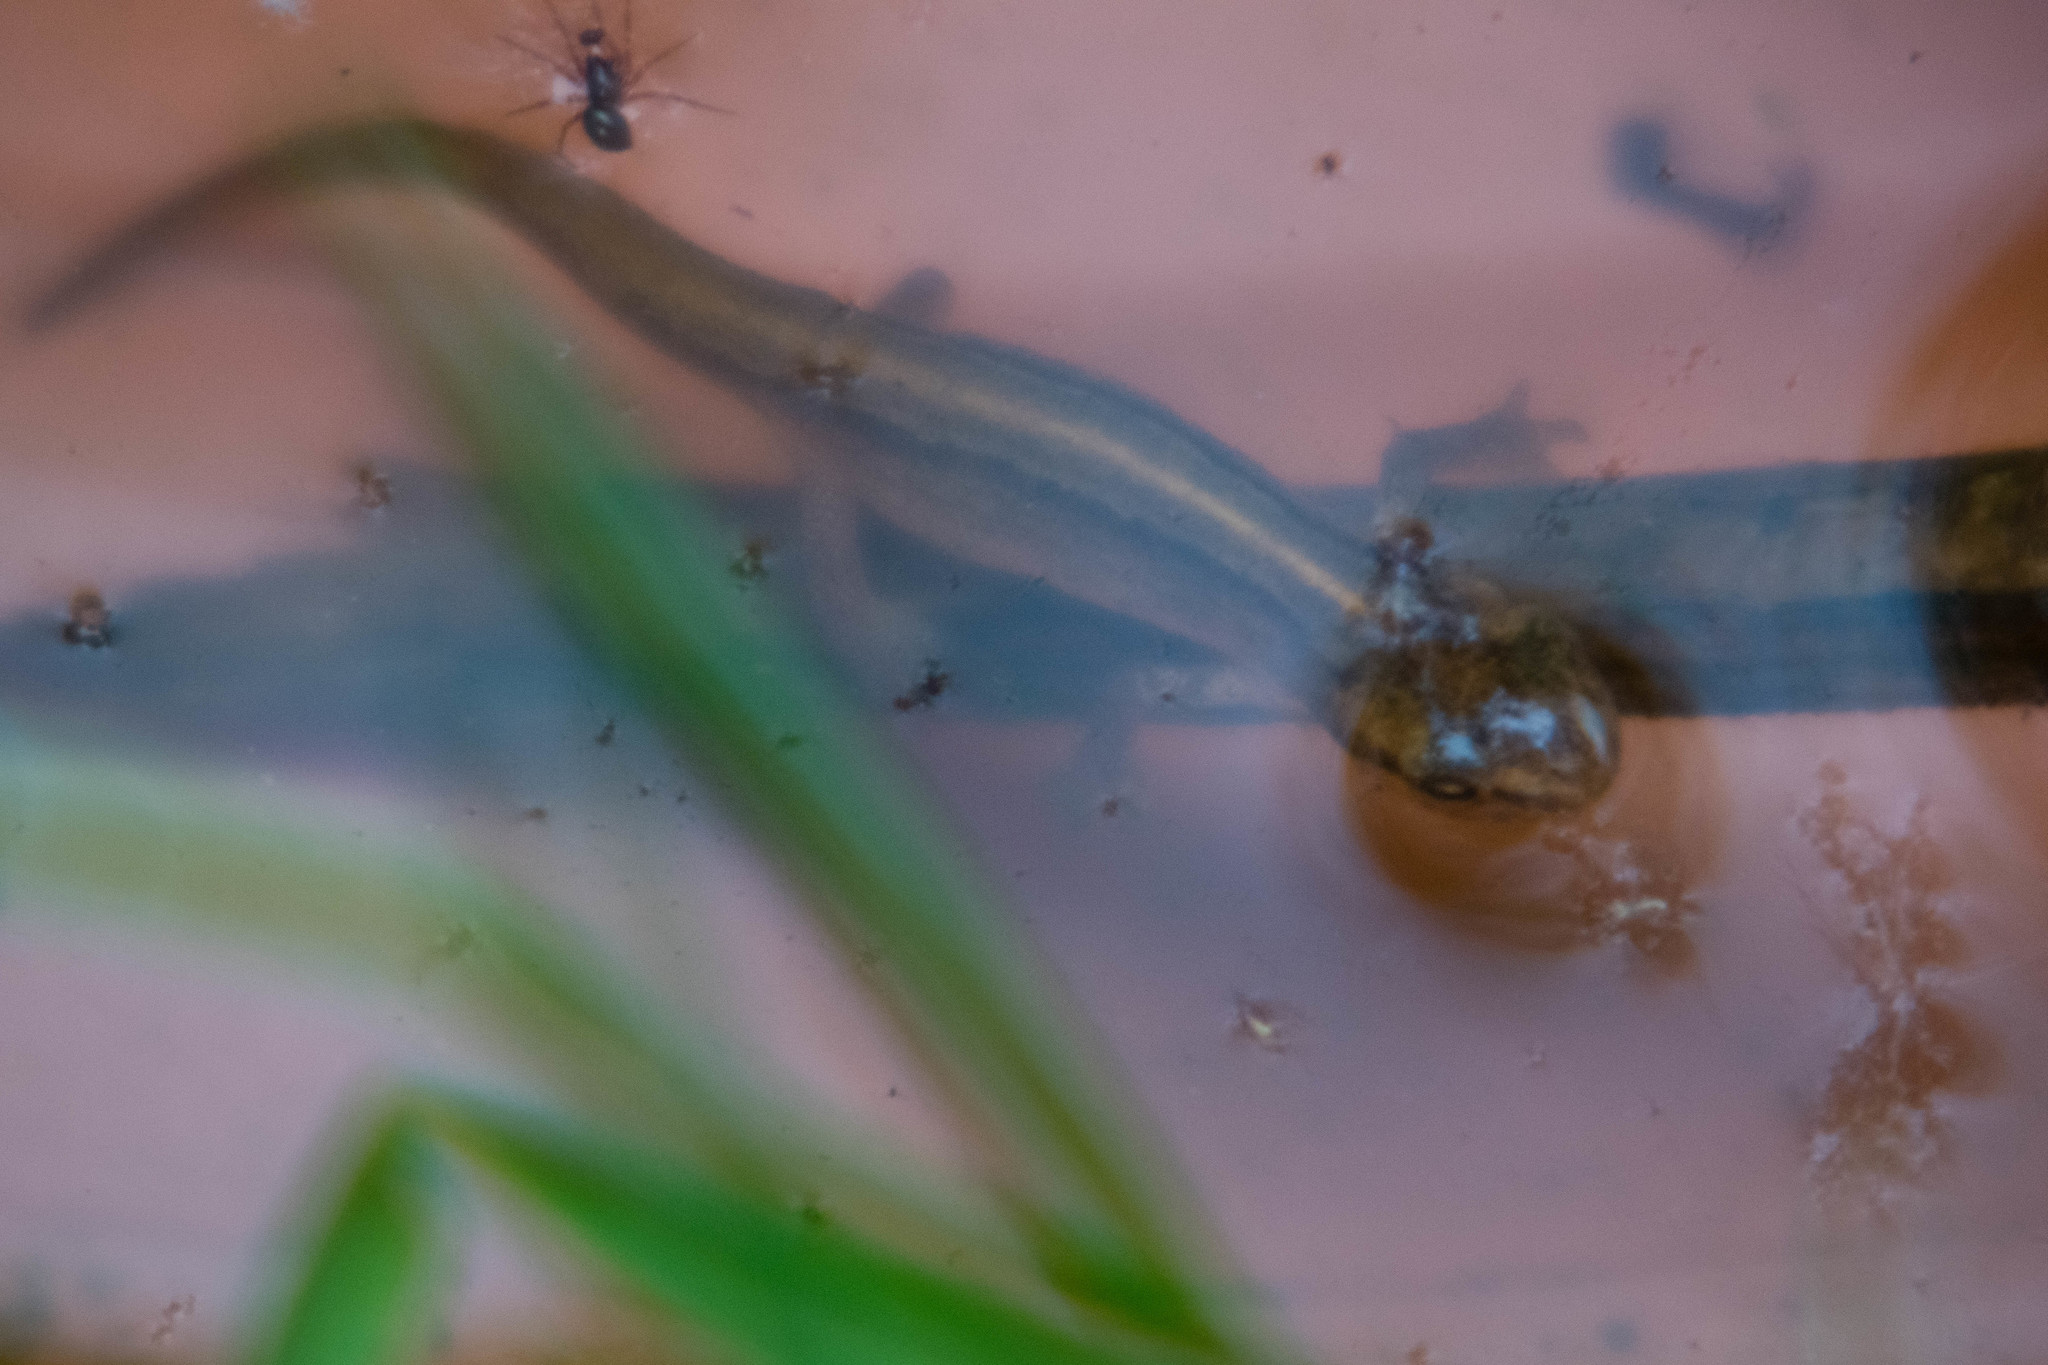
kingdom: Animalia
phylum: Chordata
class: Amphibia
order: Caudata
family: Salamandridae
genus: Lissotriton
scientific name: Lissotriton vulgaris
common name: Smooth newt
